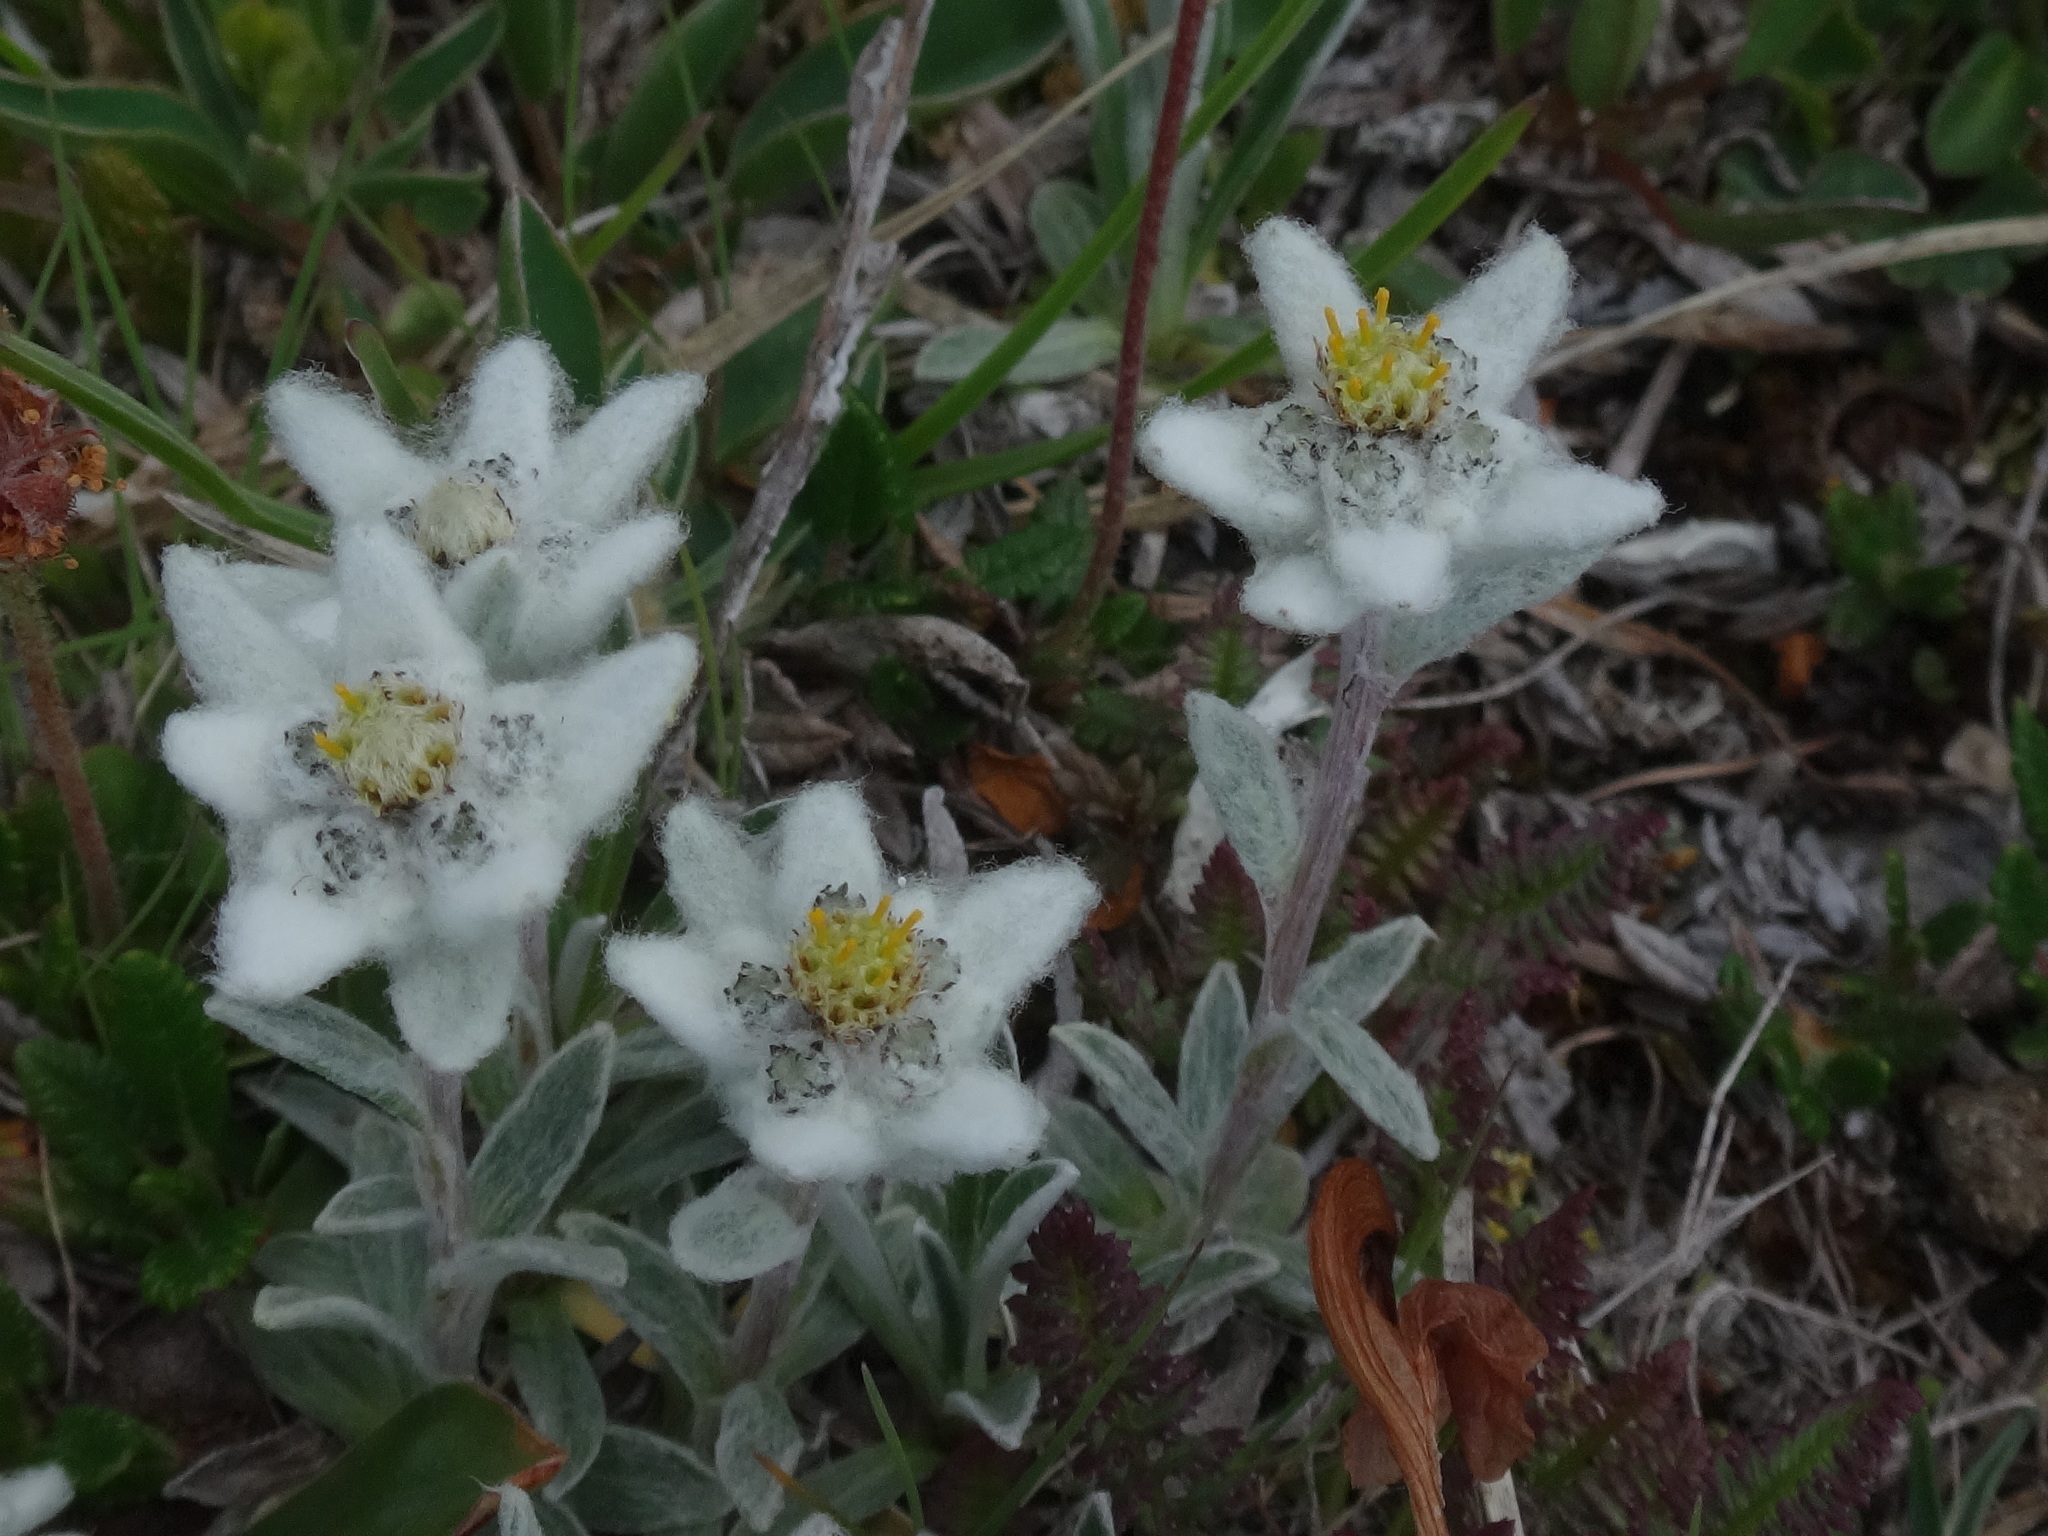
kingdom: Plantae
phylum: Tracheophyta
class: Magnoliopsida
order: Asterales
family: Asteraceae
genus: Leontopodium
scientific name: Leontopodium nivale
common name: Edelweiss
